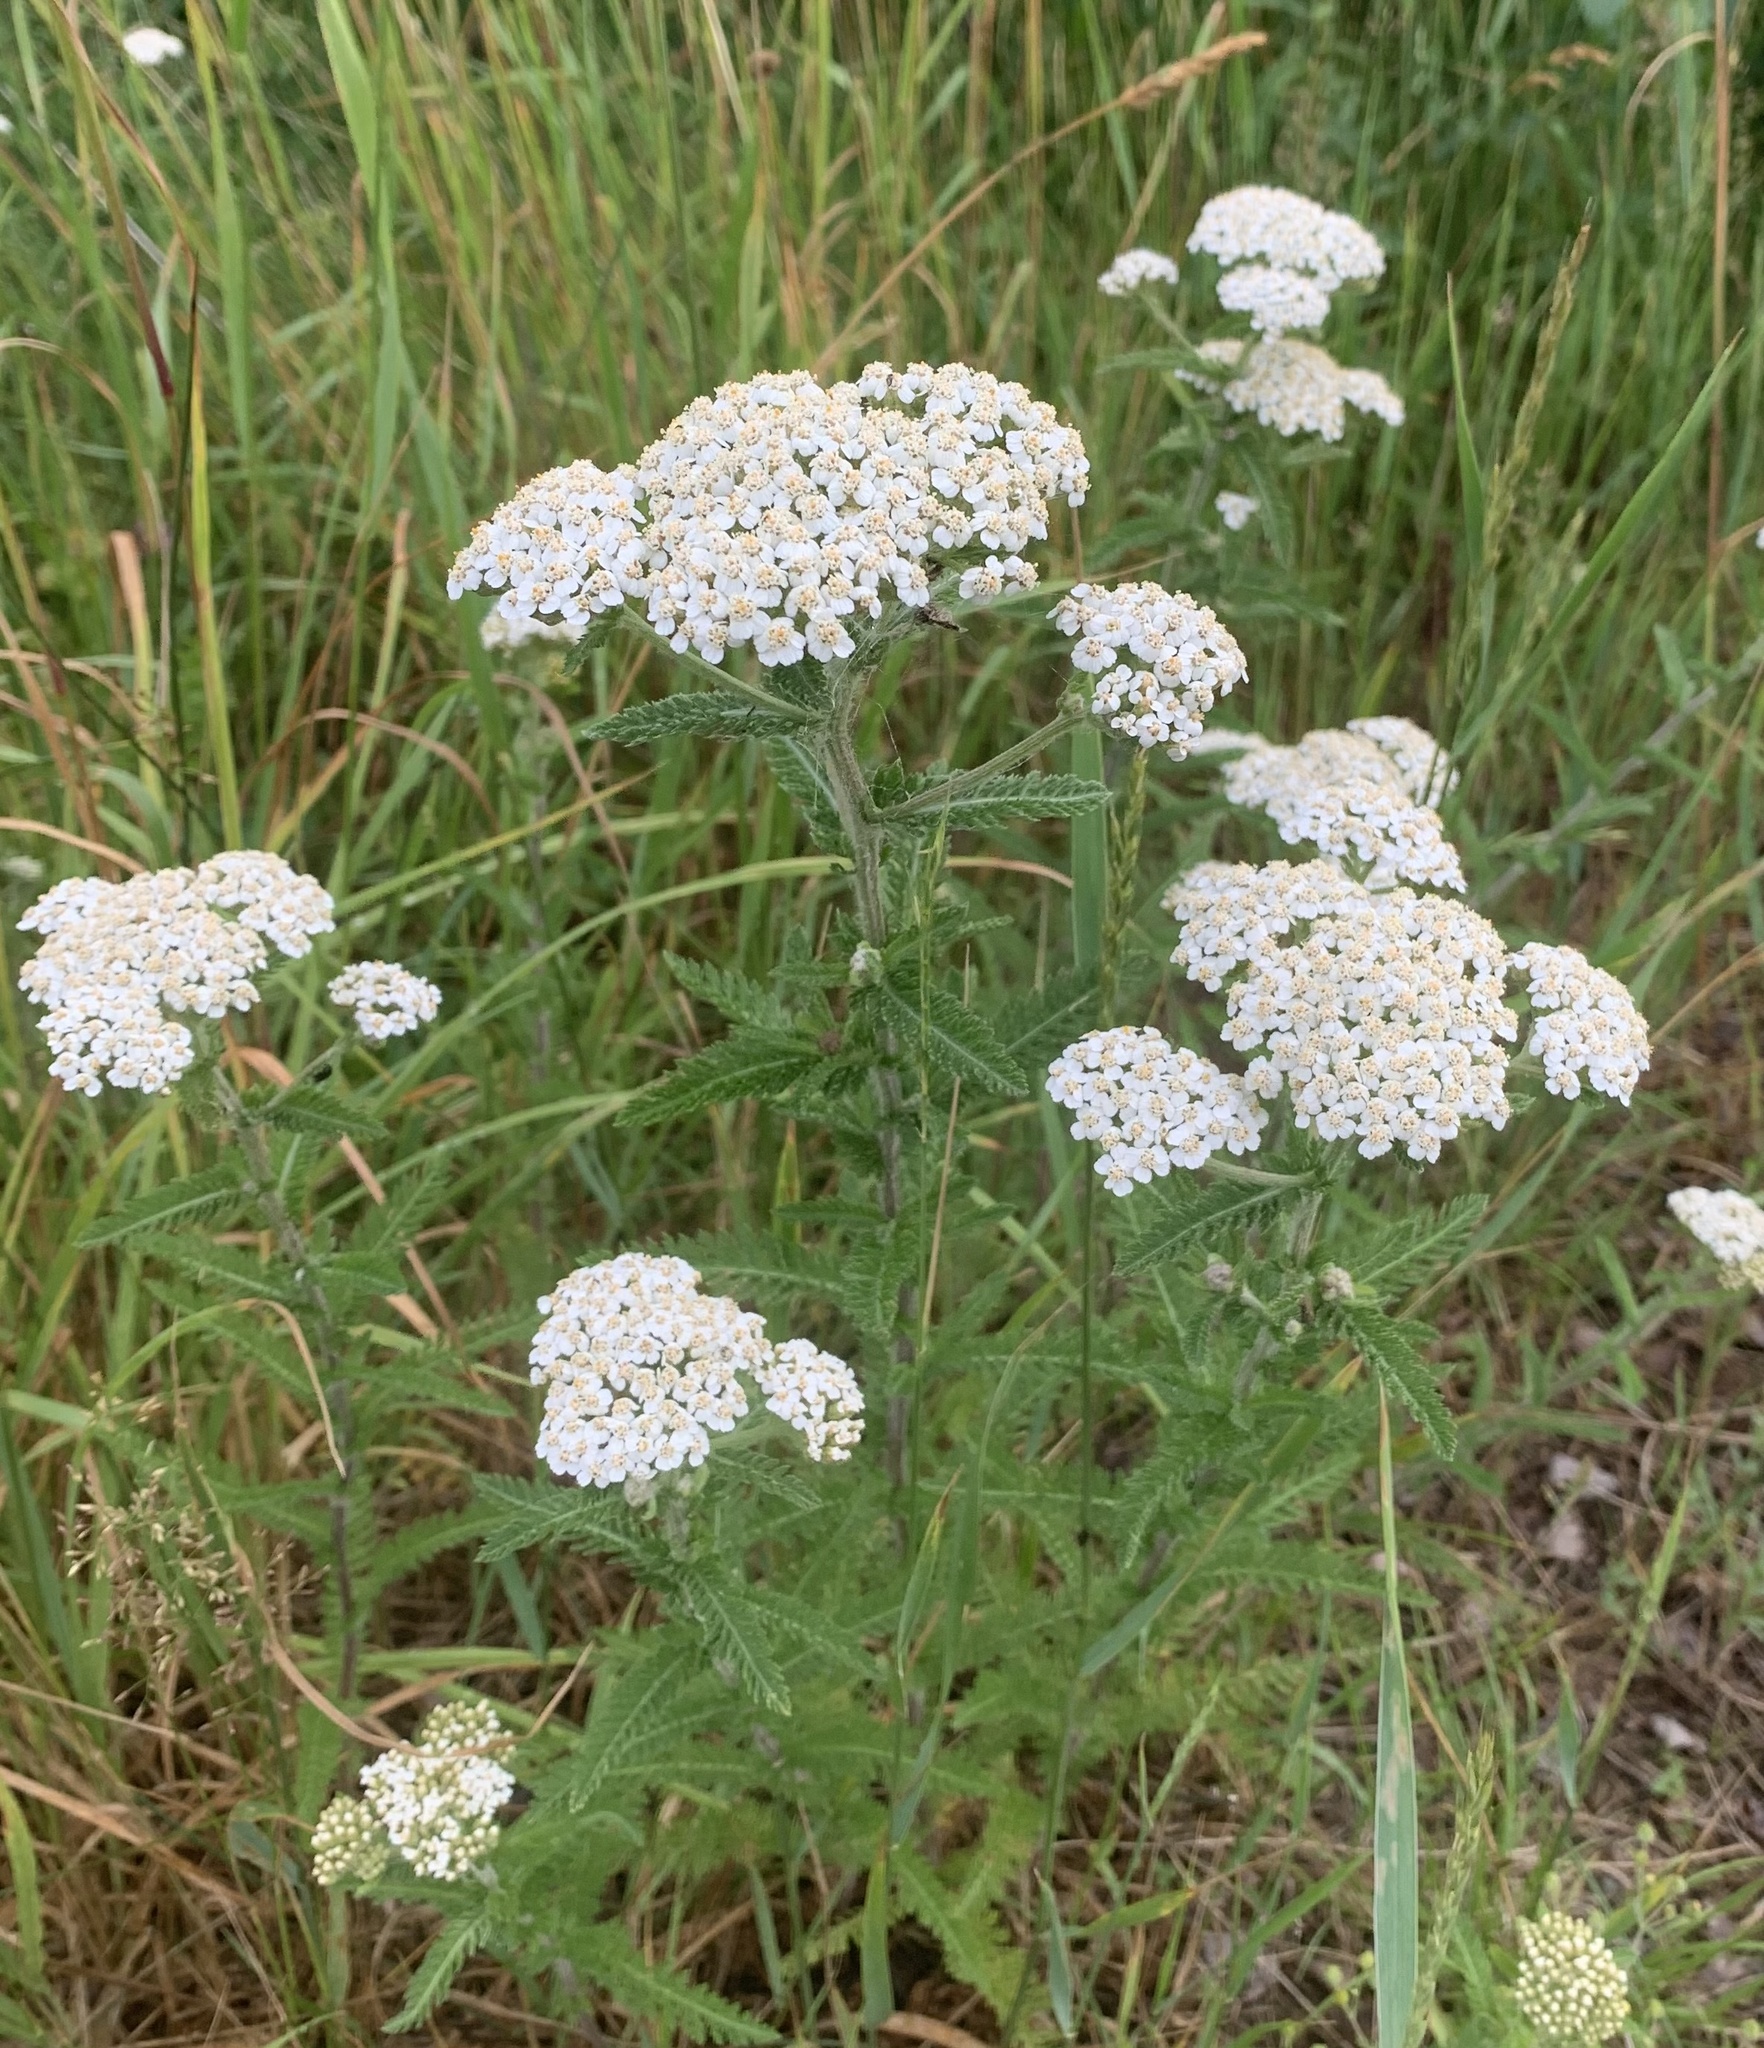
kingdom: Plantae
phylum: Tracheophyta
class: Magnoliopsida
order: Asterales
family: Asteraceae
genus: Achillea
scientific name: Achillea millefolium
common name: Yarrow
